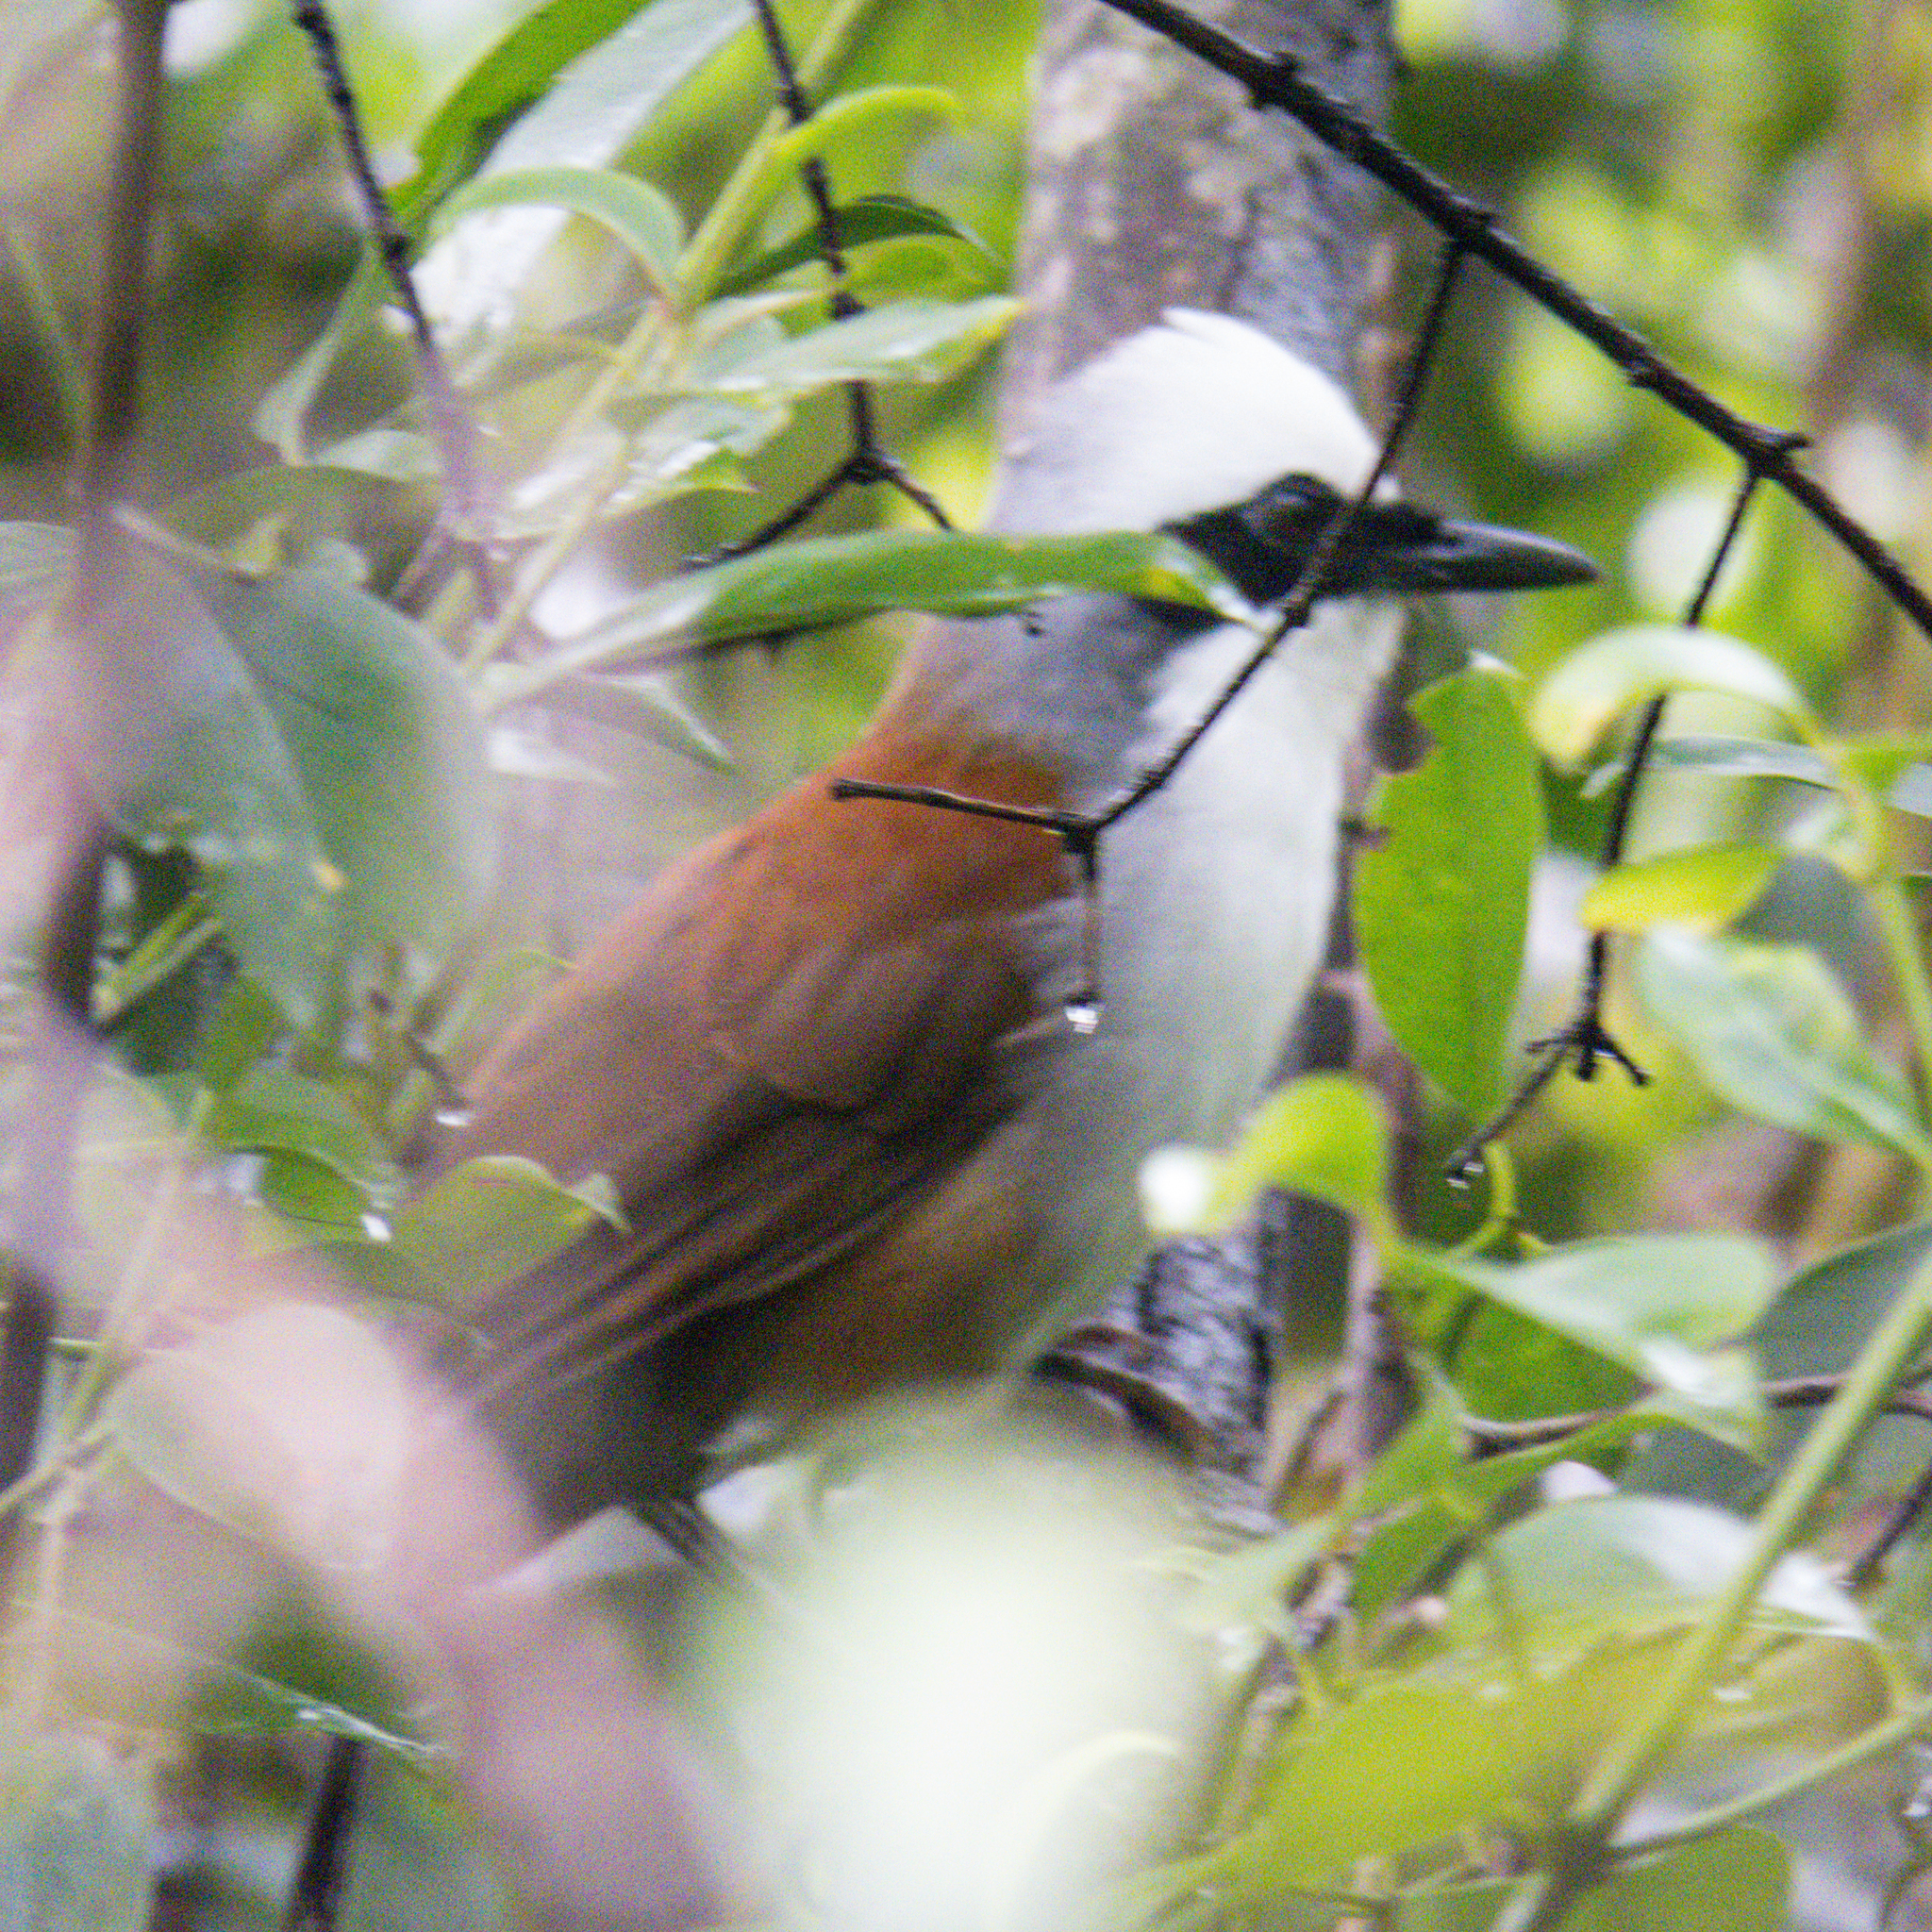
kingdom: Animalia
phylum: Chordata
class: Aves
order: Passeriformes
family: Leiothrichidae
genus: Garrulax
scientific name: Garrulax leucolophus
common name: White-crested laughingthrush
